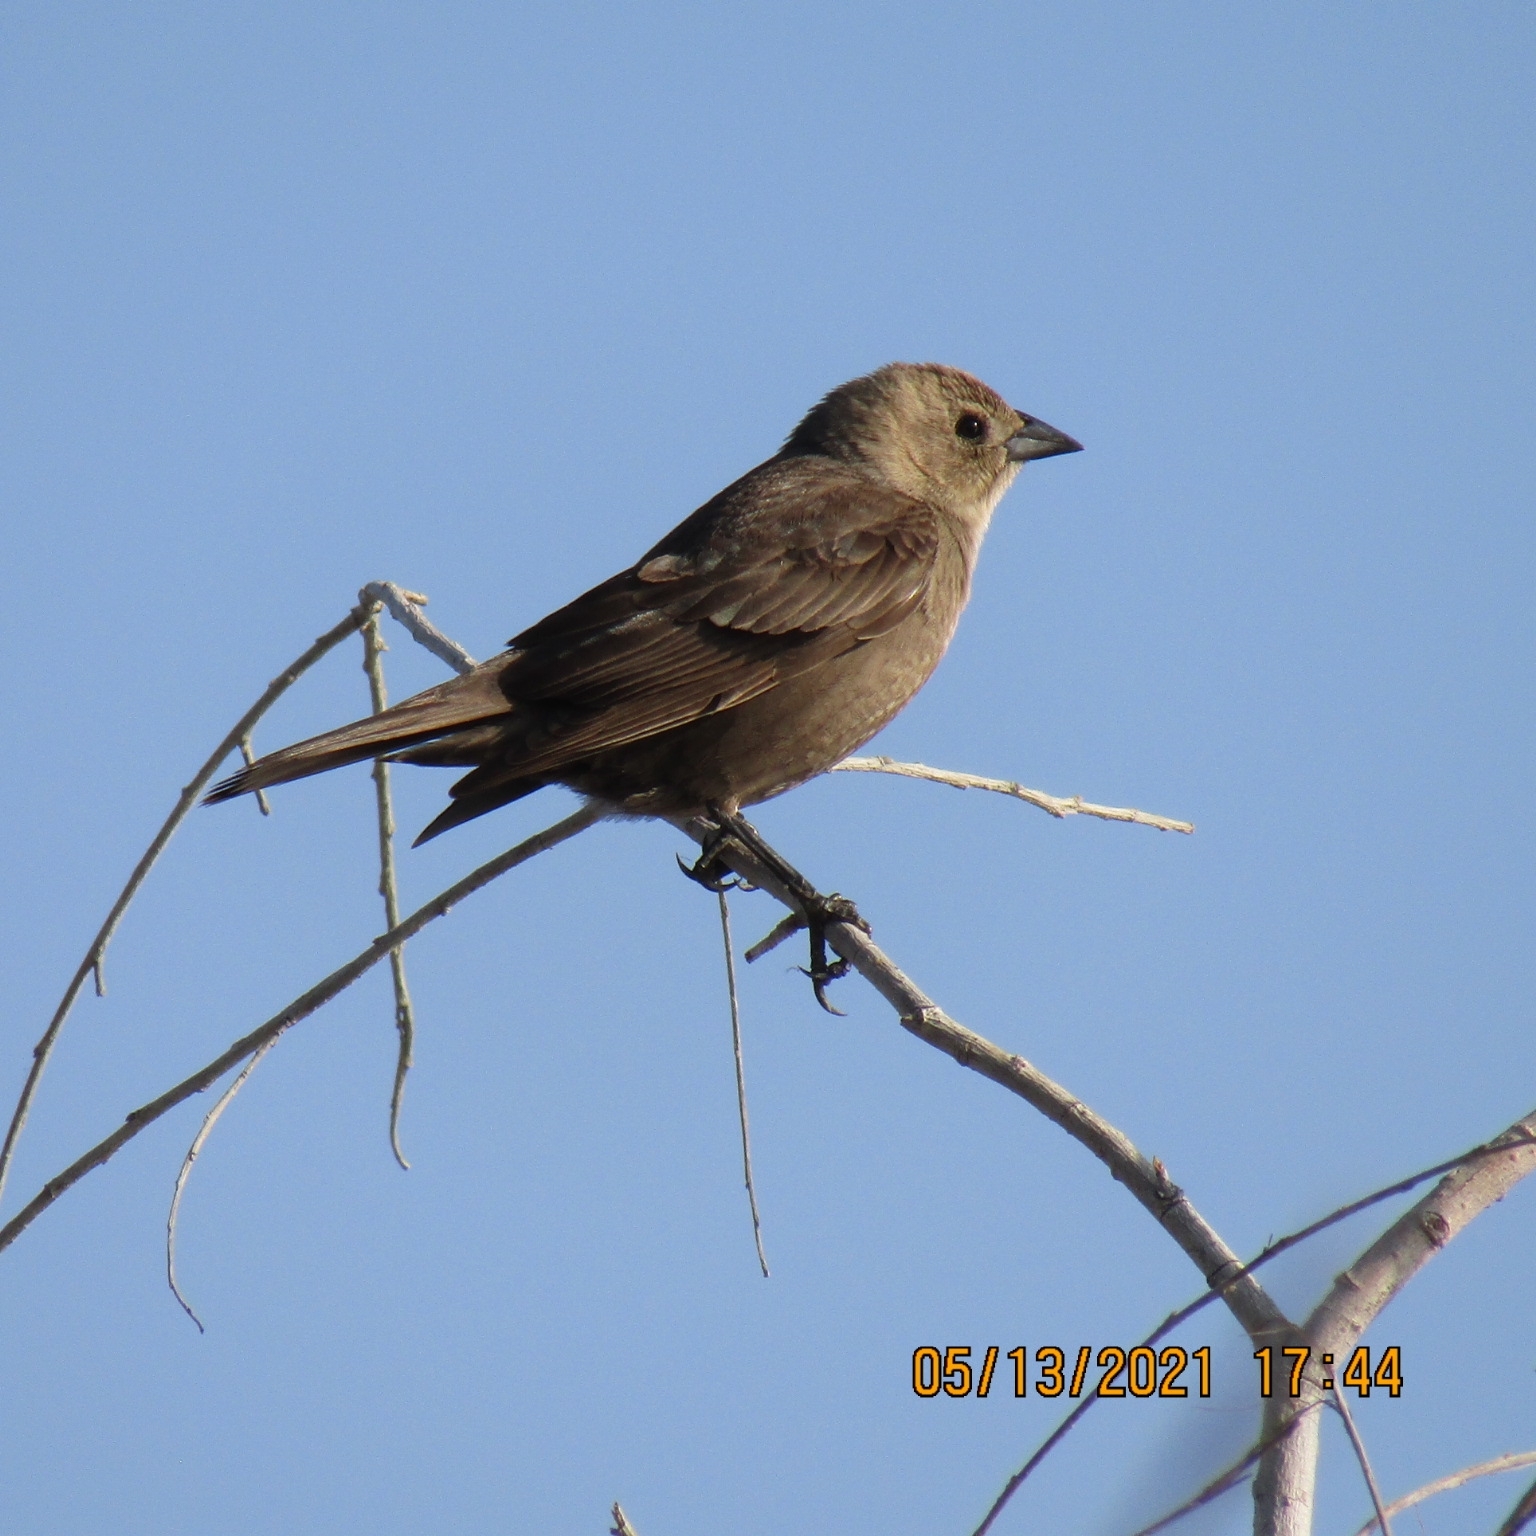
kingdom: Animalia
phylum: Chordata
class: Aves
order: Passeriformes
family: Icteridae
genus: Molothrus
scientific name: Molothrus ater
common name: Brown-headed cowbird
